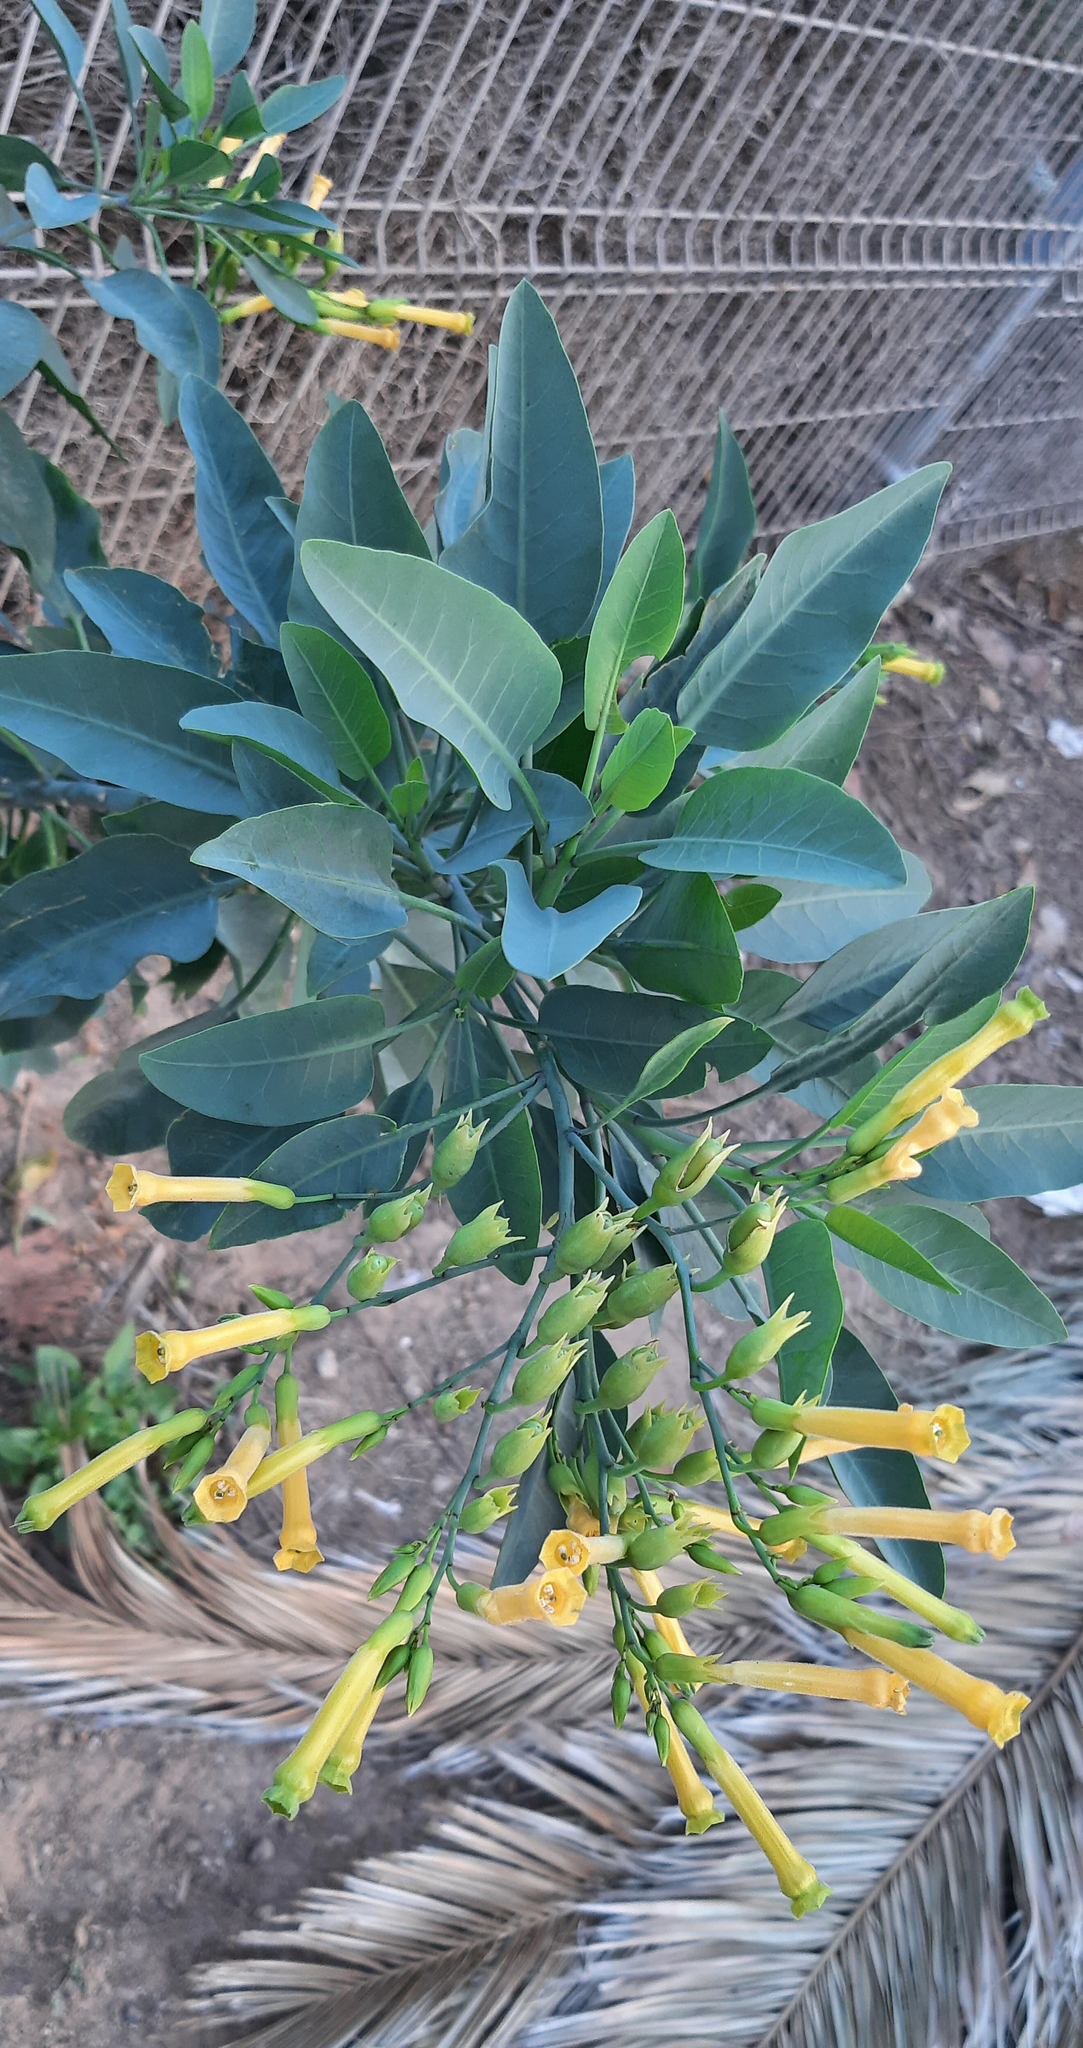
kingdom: Plantae
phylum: Tracheophyta
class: Magnoliopsida
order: Solanales
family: Solanaceae
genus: Nicotiana
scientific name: Nicotiana glauca
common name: Tree tobacco
